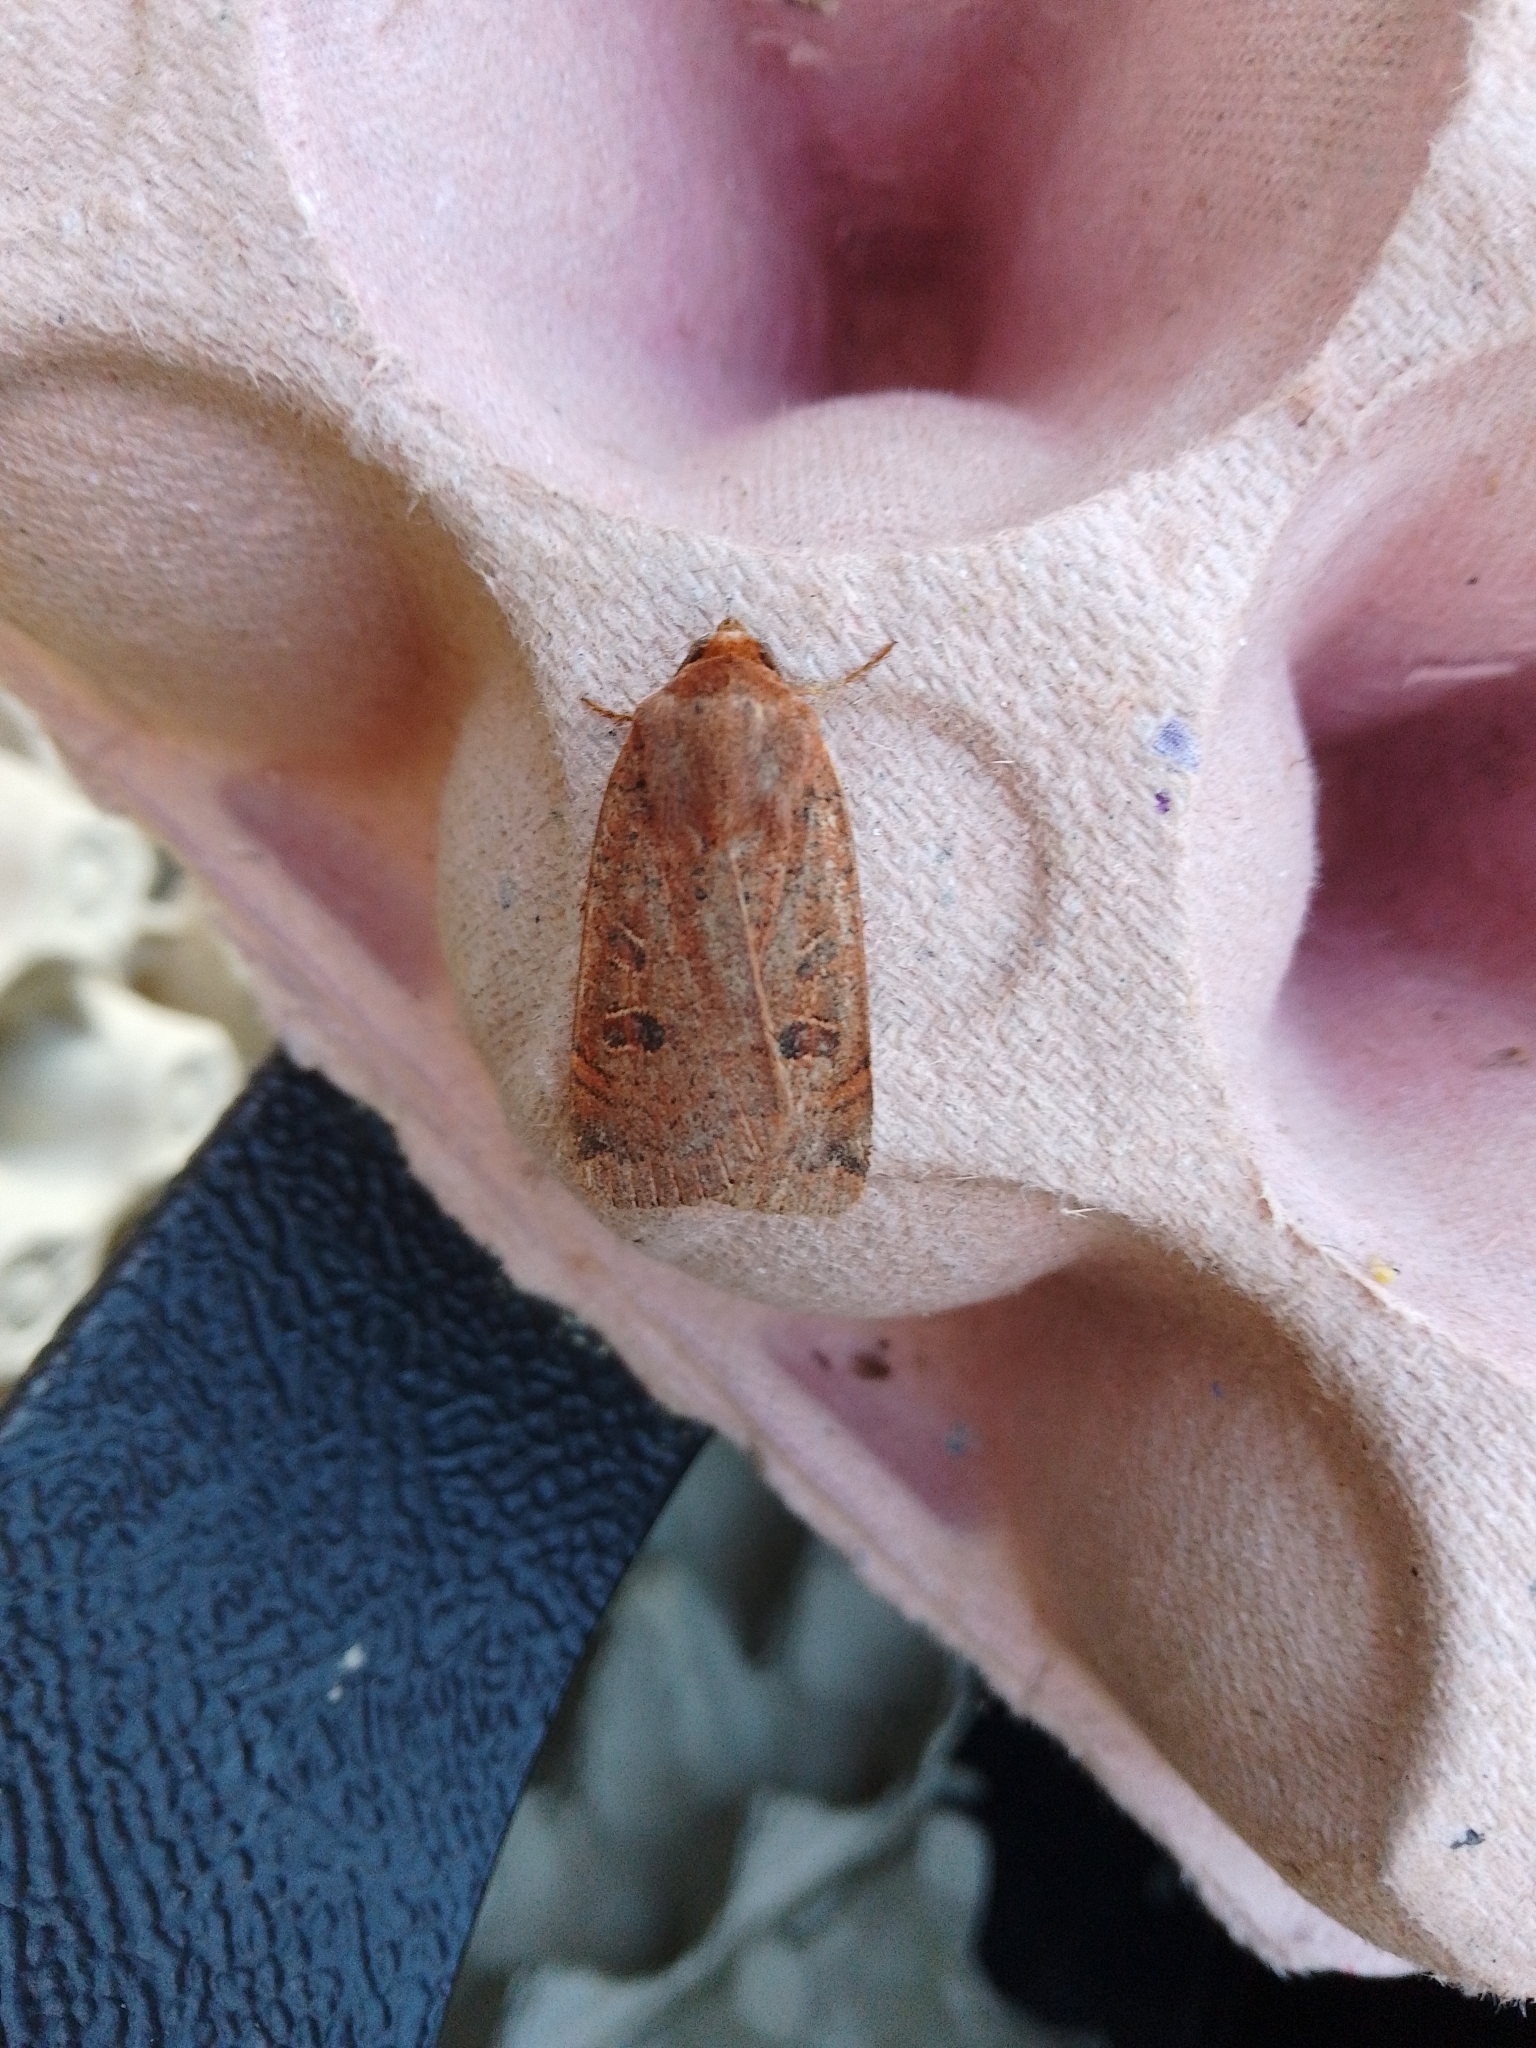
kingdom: Animalia
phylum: Arthropoda
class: Insecta
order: Lepidoptera
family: Noctuidae
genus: Noctua
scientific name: Noctua comes
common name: Lesser yellow underwing
